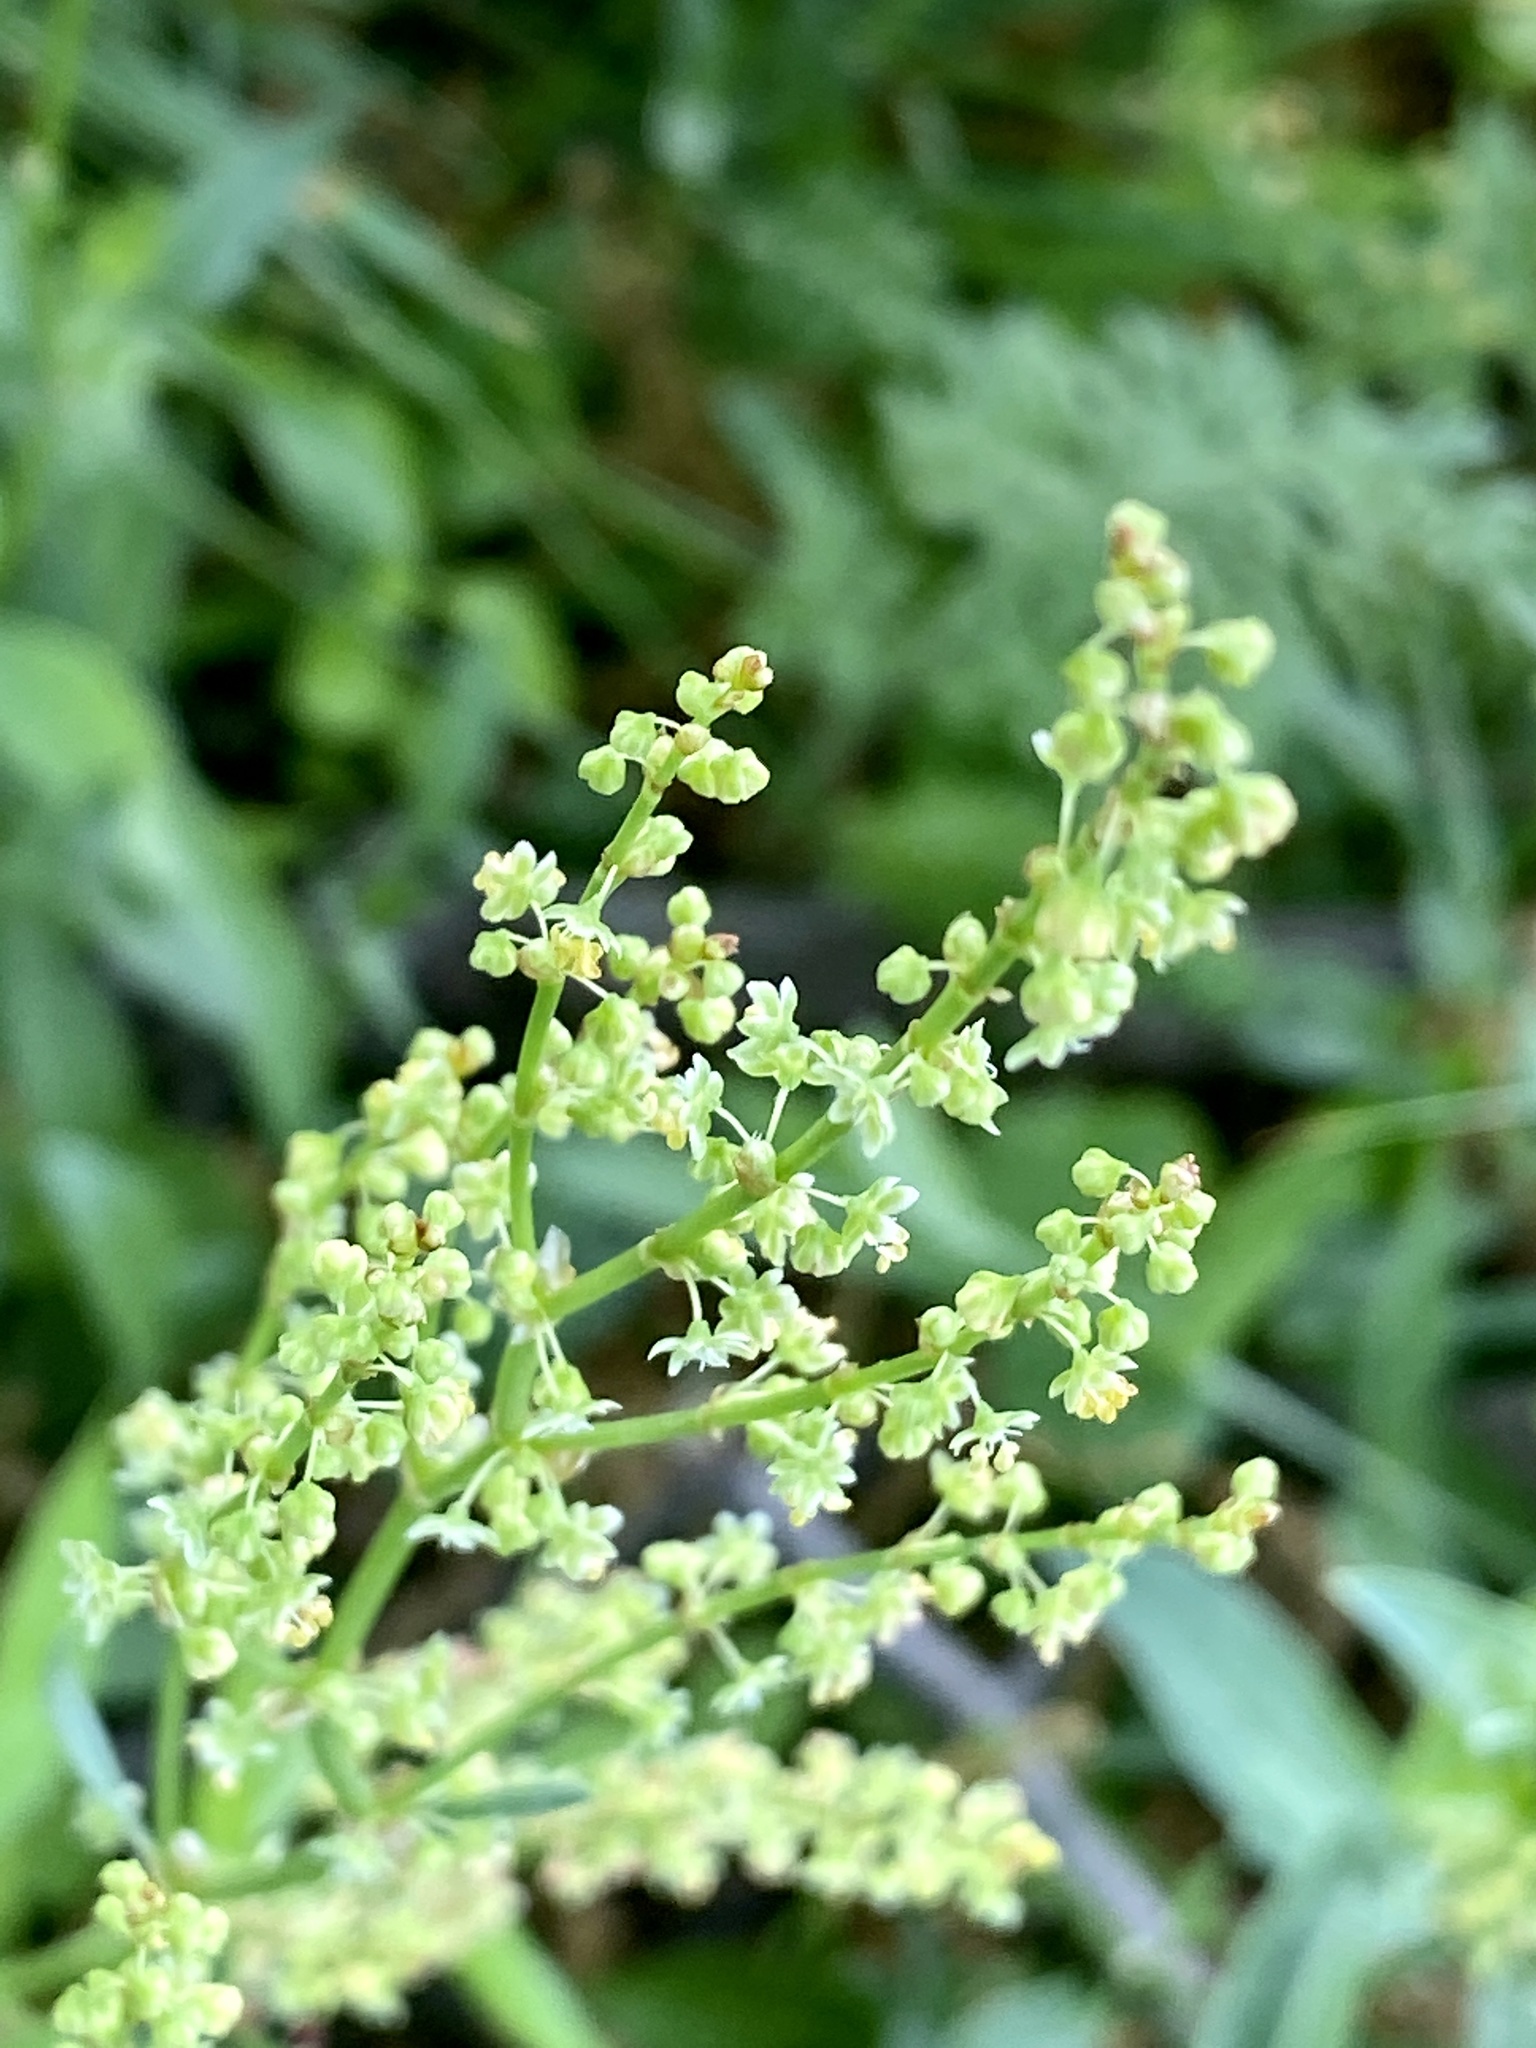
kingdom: Plantae
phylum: Tracheophyta
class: Magnoliopsida
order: Caryophyllales
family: Polygonaceae
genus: Rumex
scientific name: Rumex acetosella
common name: Common sheep sorrel
